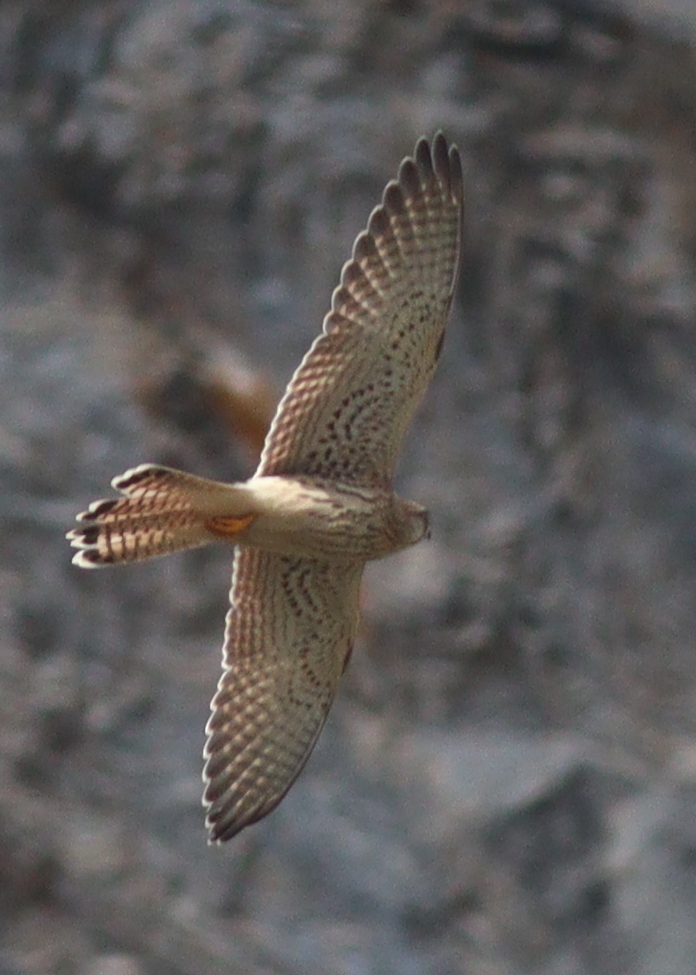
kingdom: Animalia
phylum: Chordata
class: Aves
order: Falconiformes
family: Falconidae
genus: Falco
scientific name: Falco tinnunculus
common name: Common kestrel
